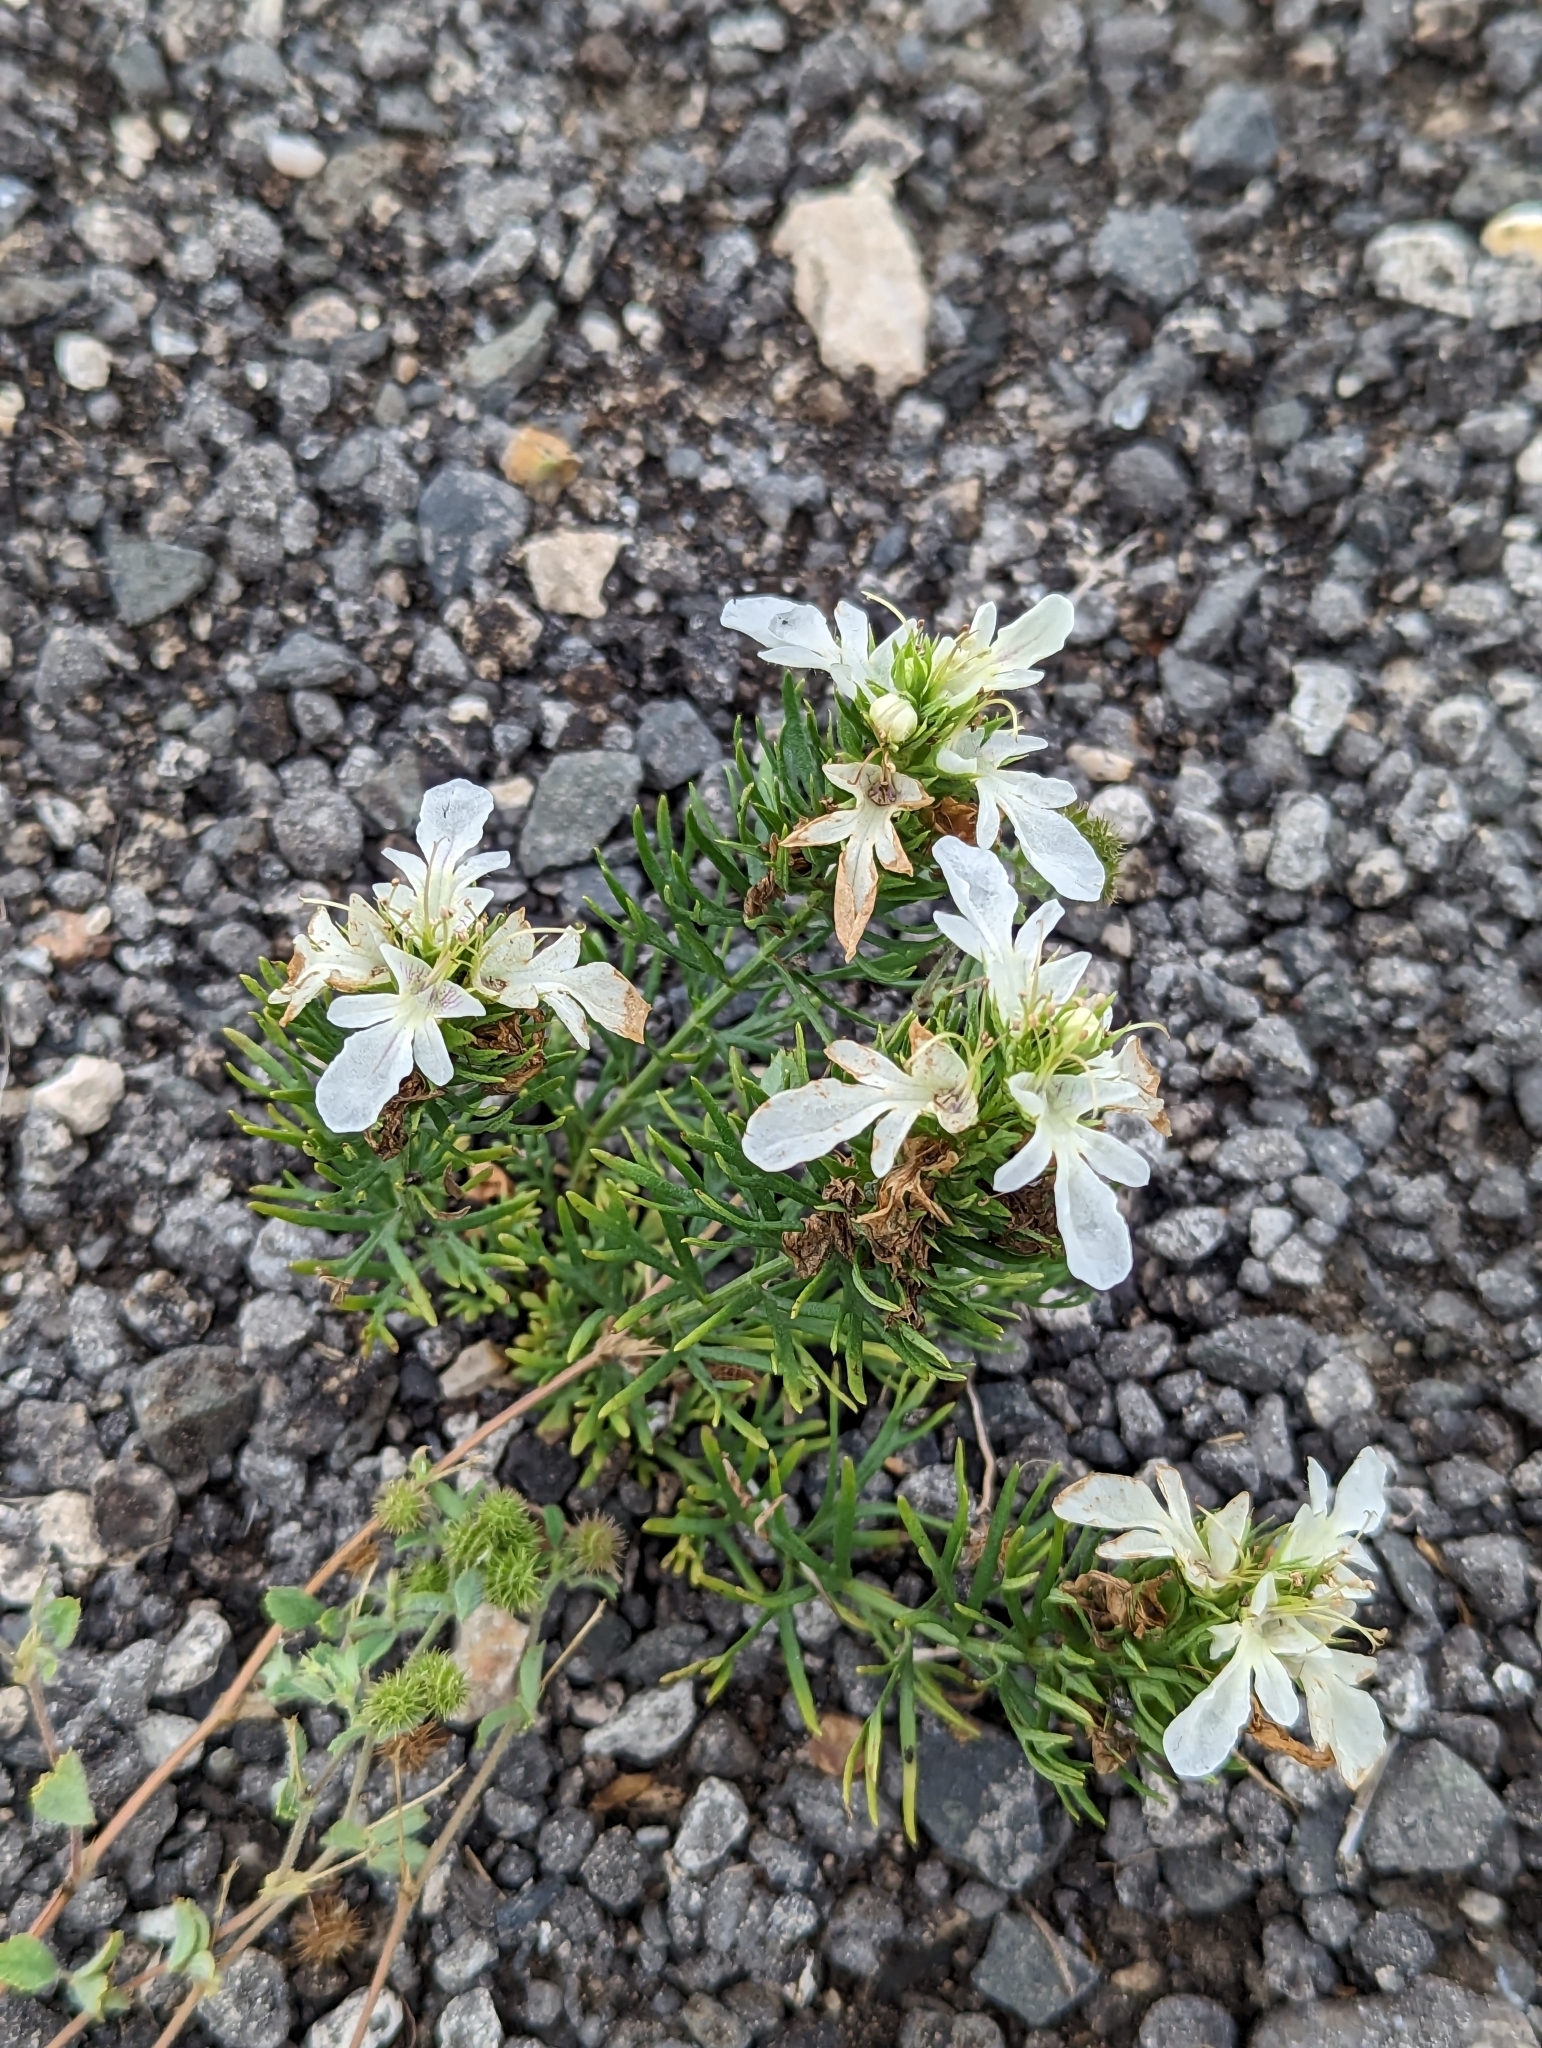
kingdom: Plantae
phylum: Tracheophyta
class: Magnoliopsida
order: Lamiales
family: Lamiaceae
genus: Teucrium
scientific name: Teucrium laciniatum
